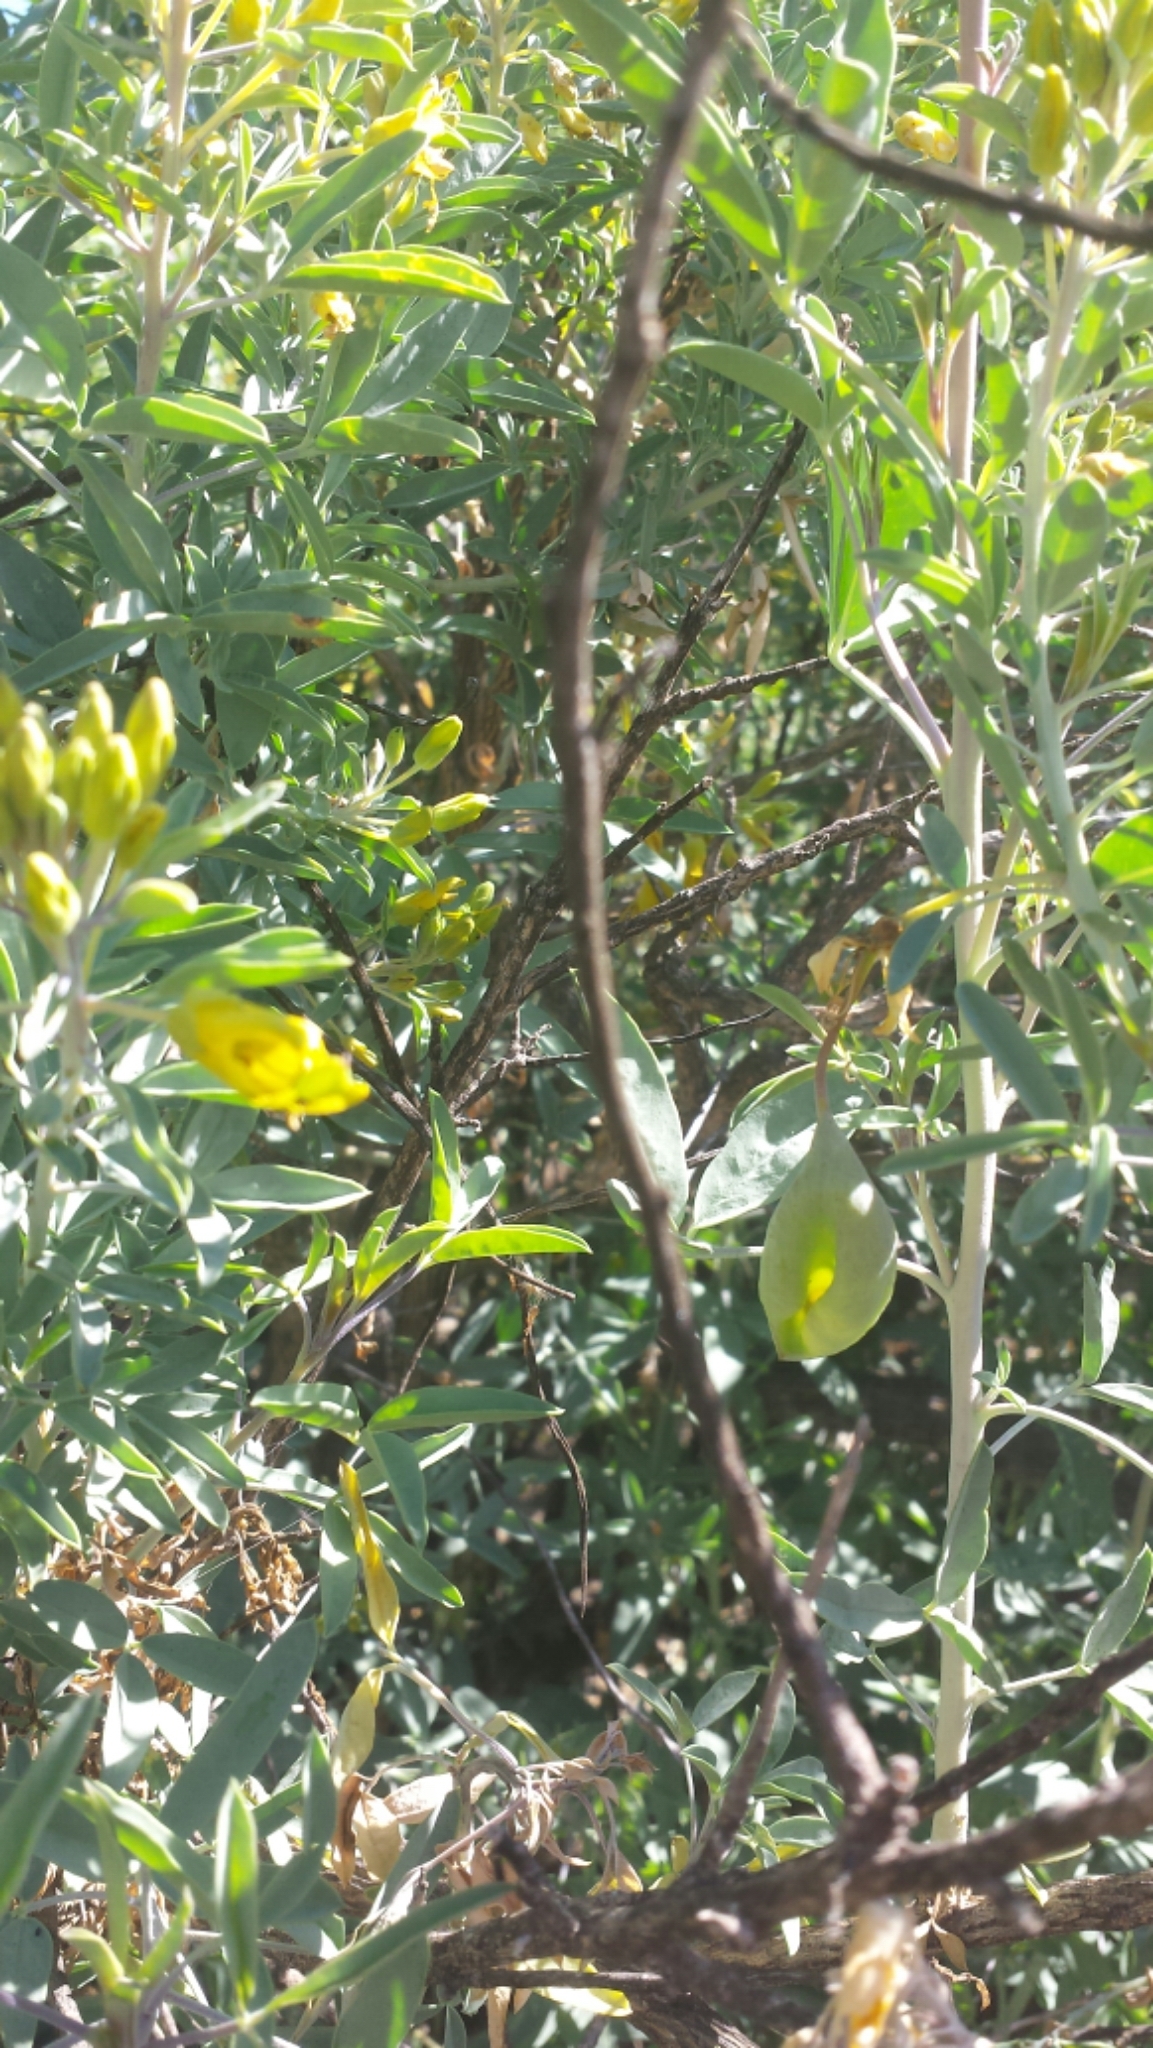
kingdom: Plantae
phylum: Tracheophyta
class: Magnoliopsida
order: Brassicales
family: Cleomaceae
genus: Cleomella
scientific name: Cleomella arborea
